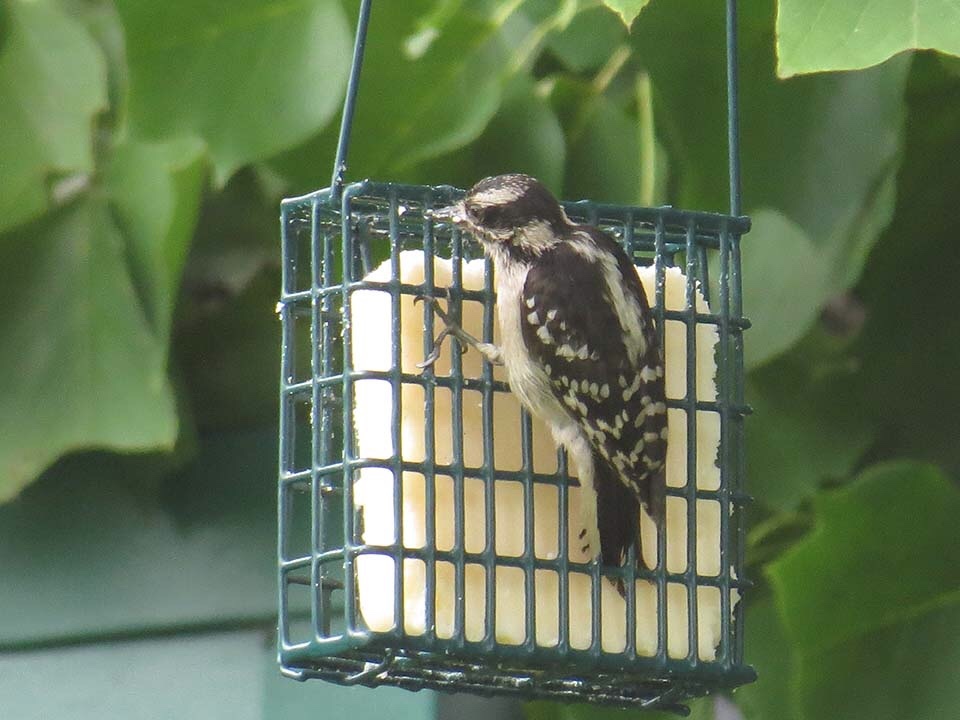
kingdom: Animalia
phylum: Chordata
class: Aves
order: Piciformes
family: Picidae
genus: Dryobates
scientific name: Dryobates pubescens
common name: Downy woodpecker
